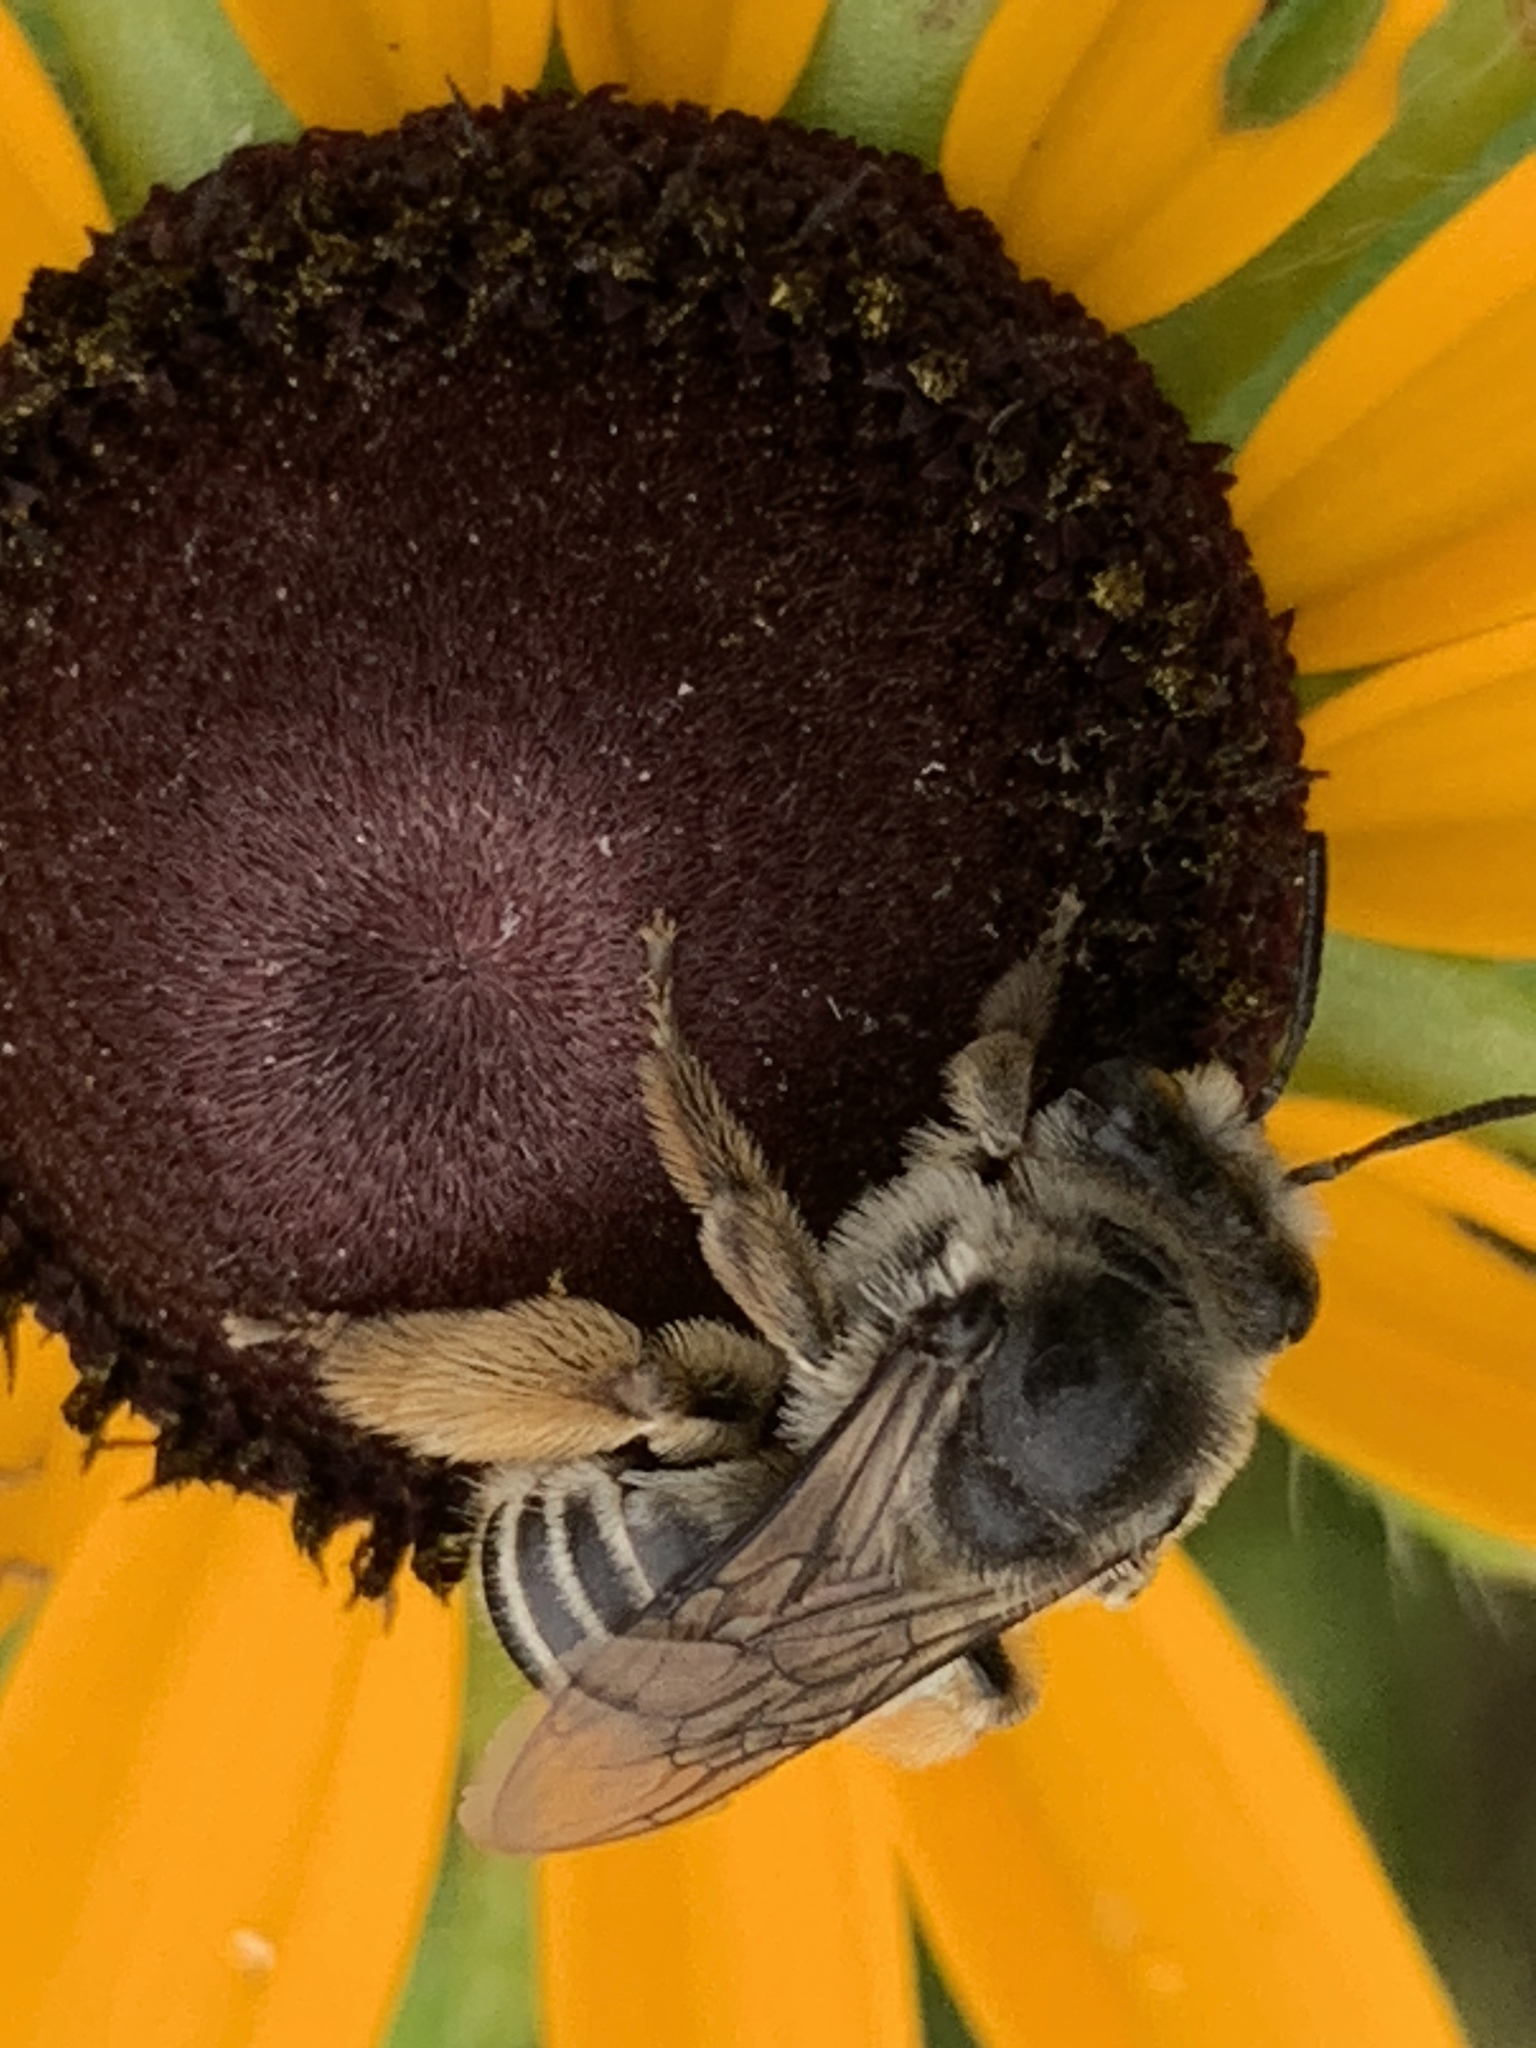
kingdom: Animalia
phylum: Arthropoda
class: Insecta
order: Hymenoptera
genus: Eumelissodes
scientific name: Eumelissodes
